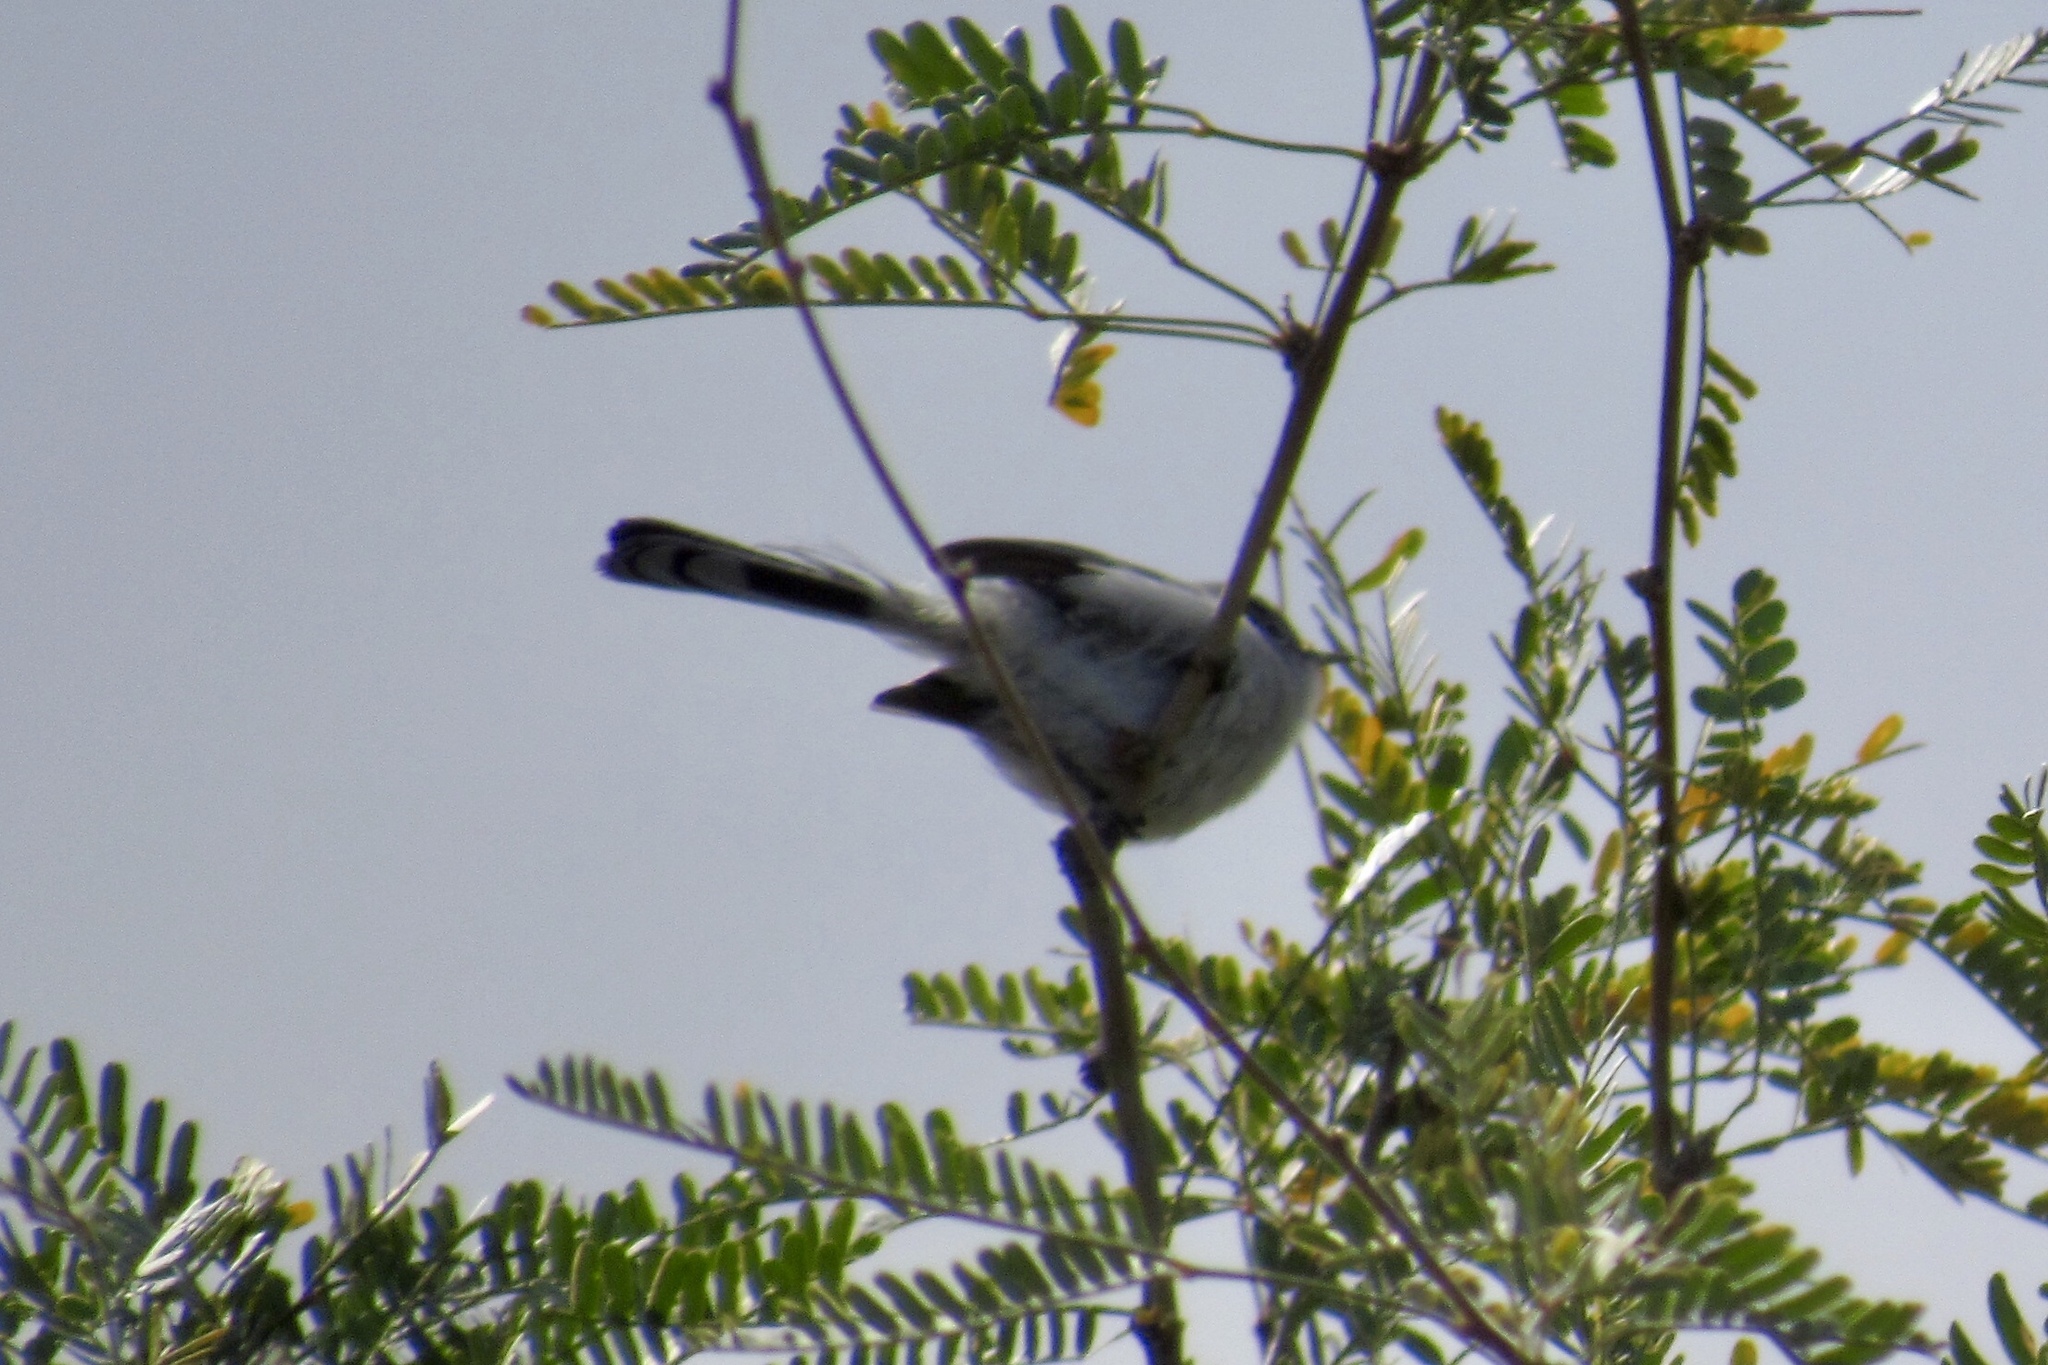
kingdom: Animalia
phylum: Chordata
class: Aves
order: Passeriformes
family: Polioptilidae
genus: Polioptila
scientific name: Polioptila melanura
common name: Black-tailed gnatcatcher
